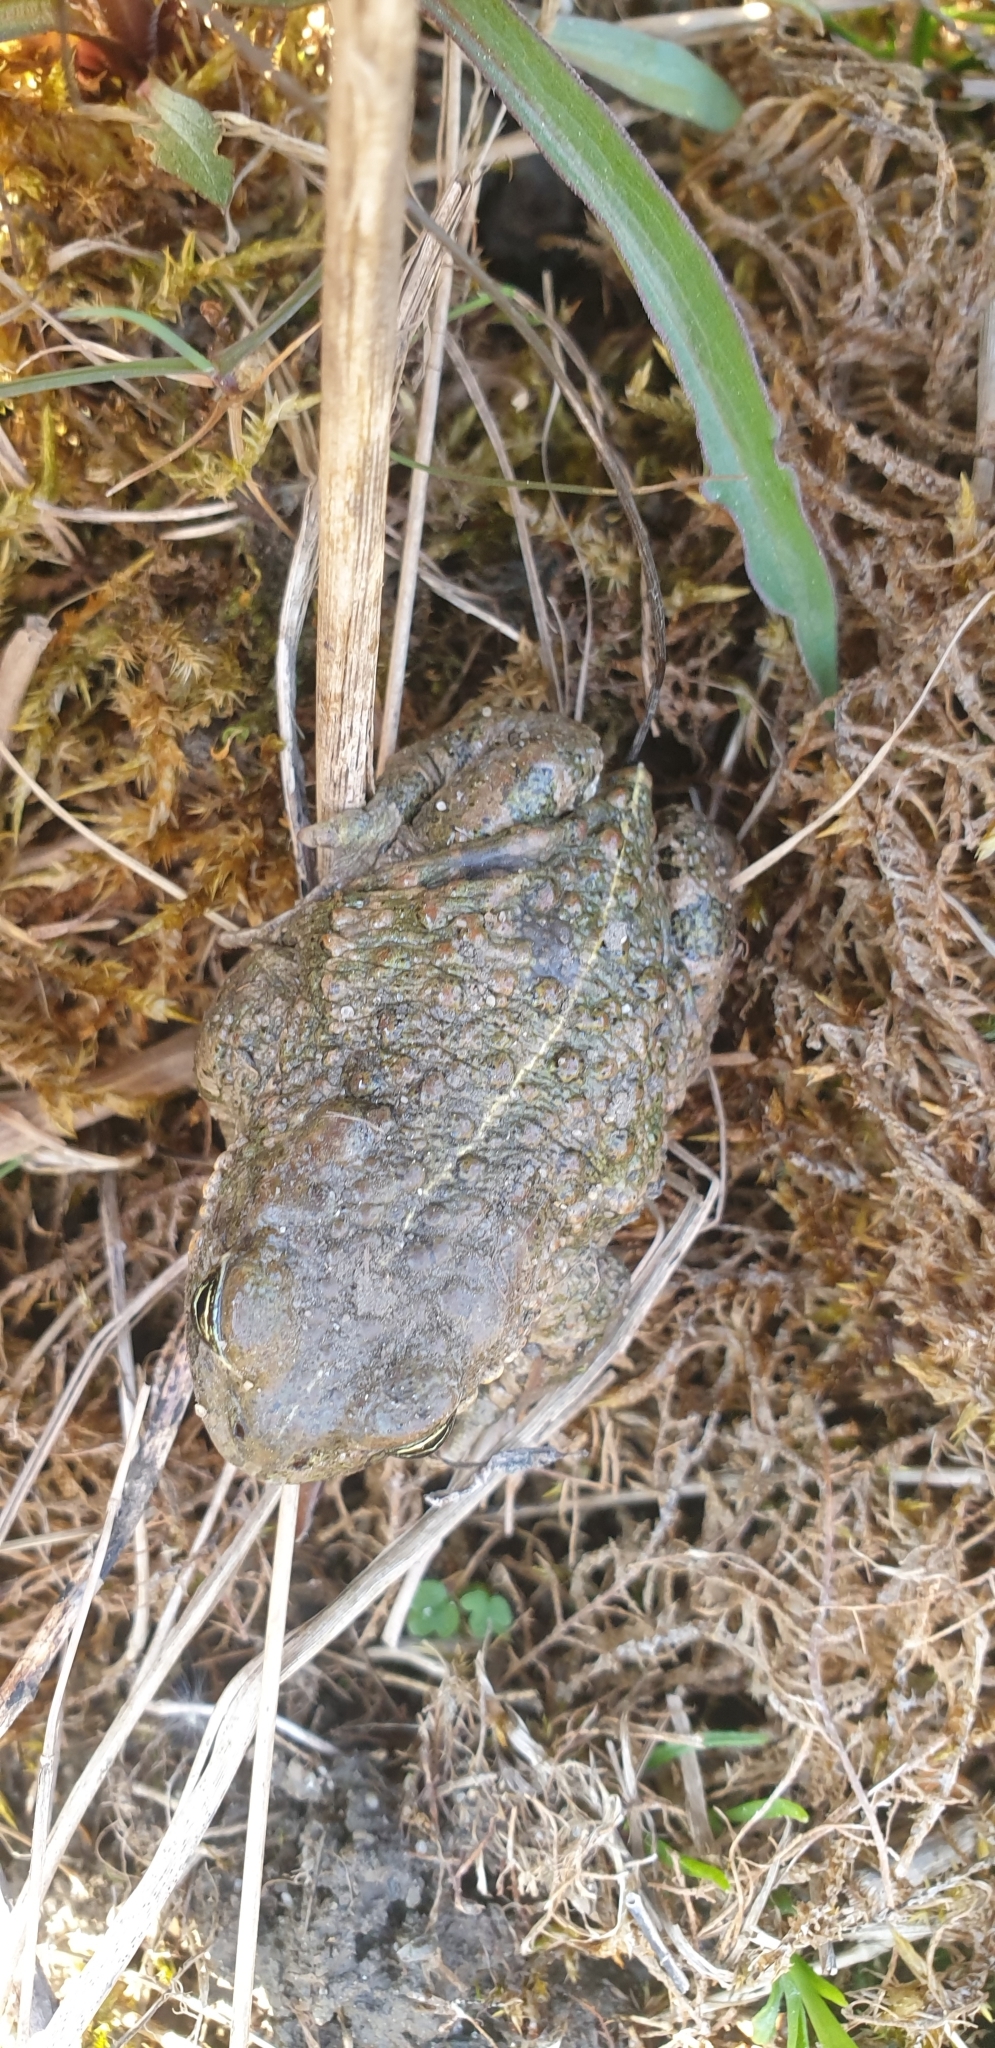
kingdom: Animalia
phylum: Chordata
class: Amphibia
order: Anura
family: Bufonidae
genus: Epidalea
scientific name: Epidalea calamita
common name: Natterjack toad
